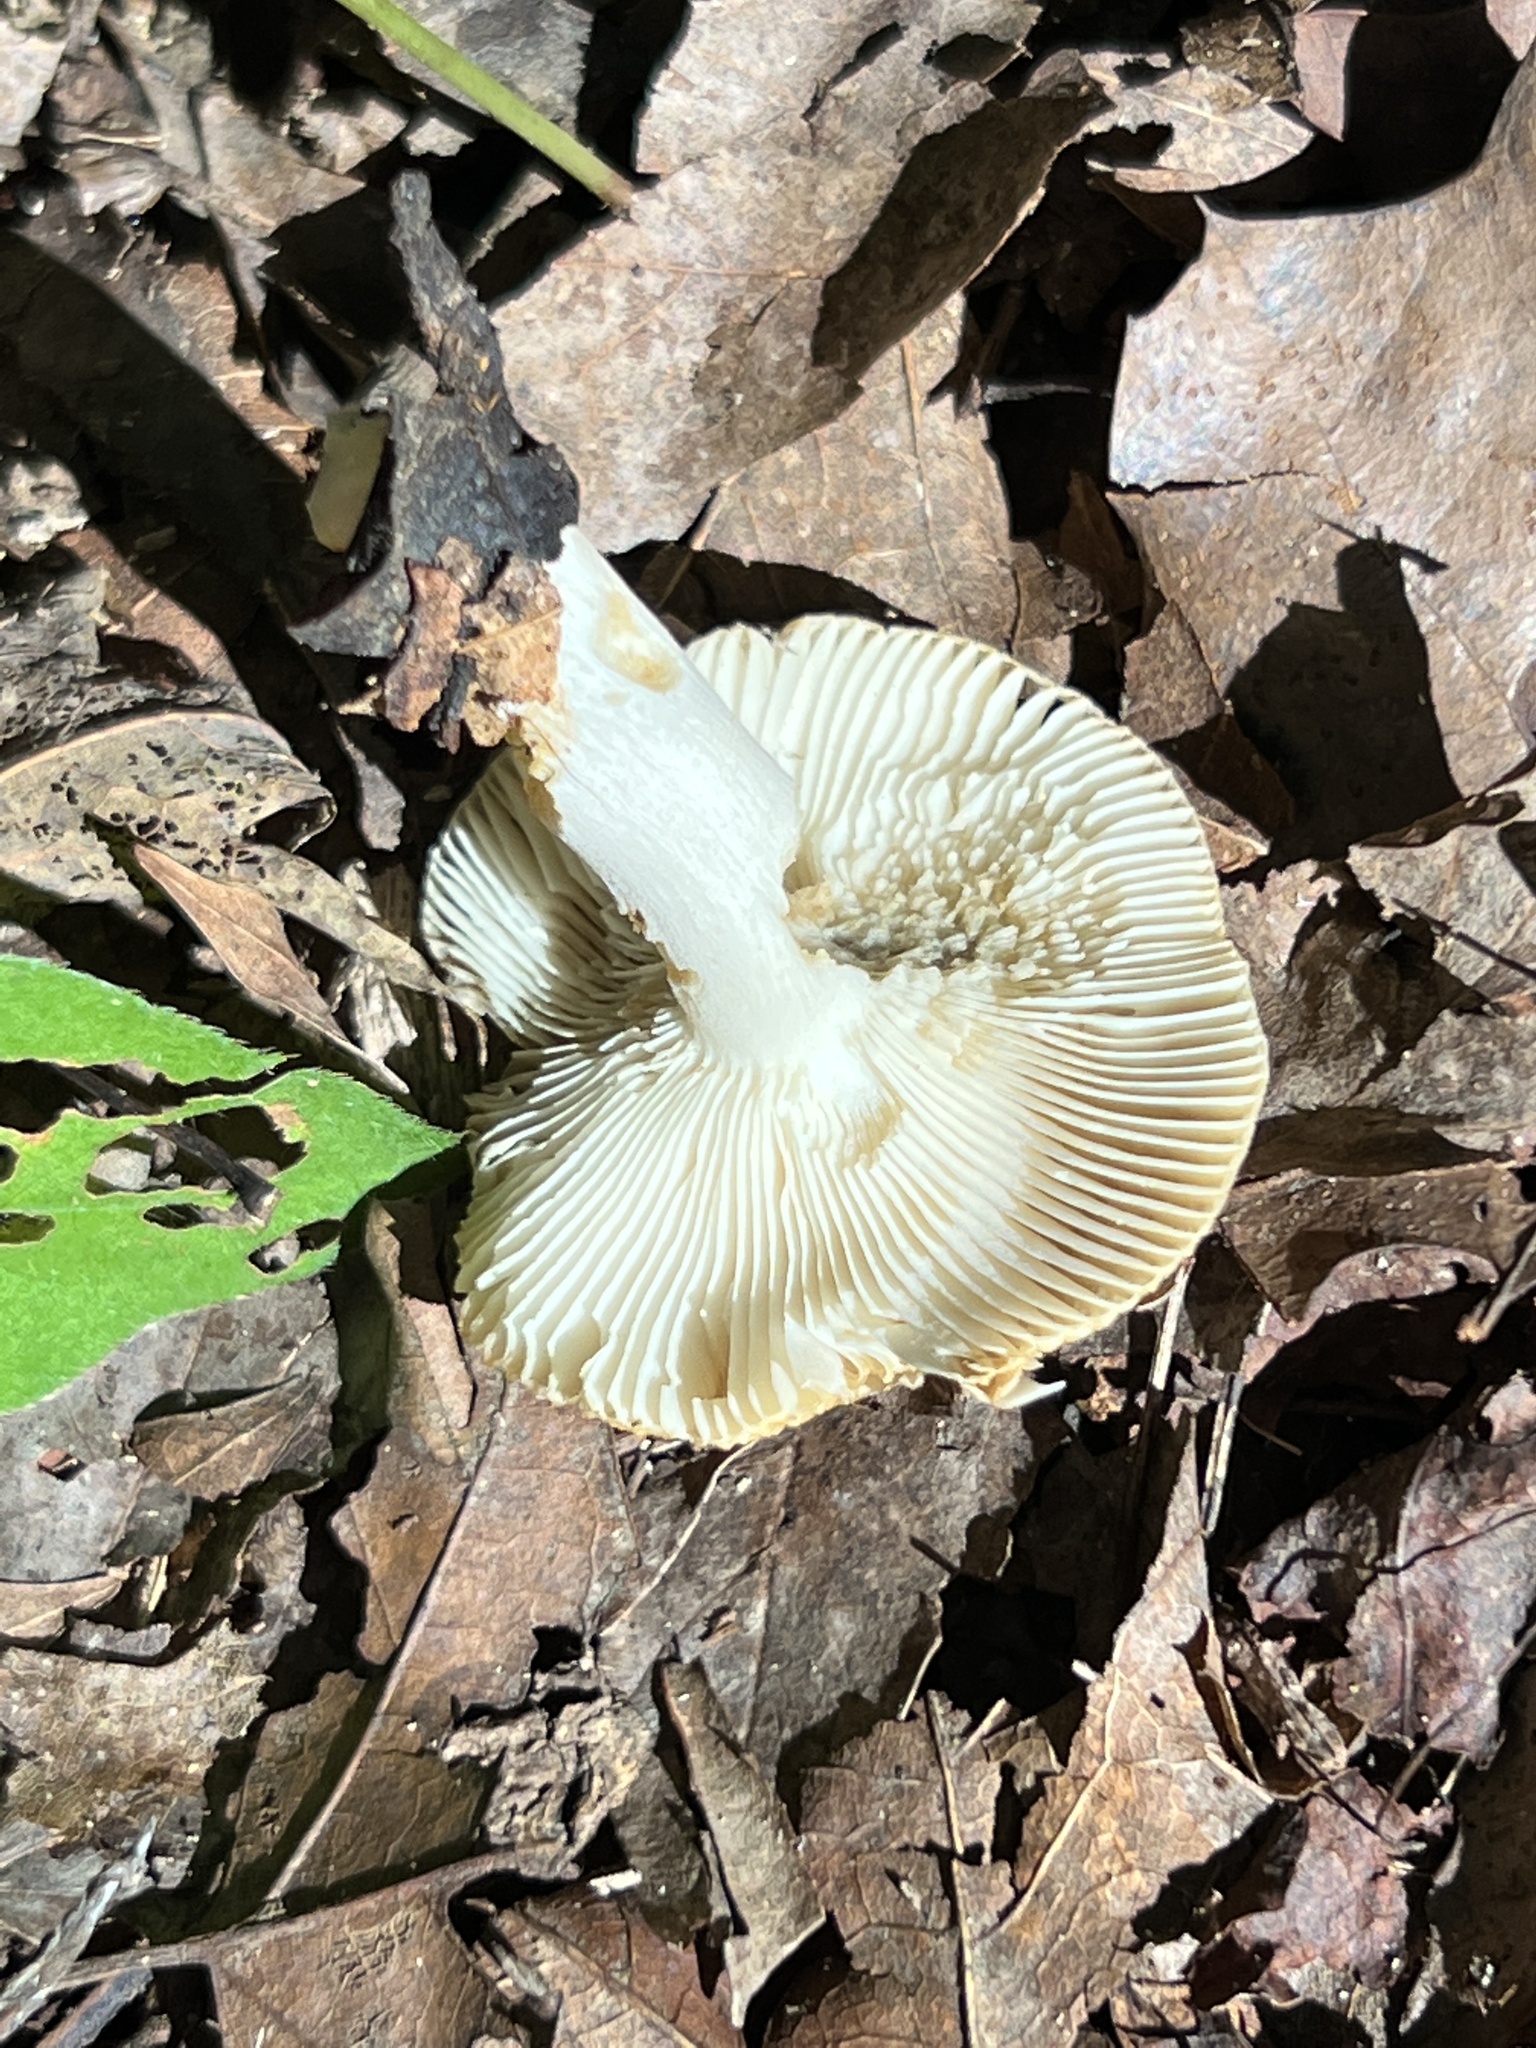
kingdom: Fungi
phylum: Basidiomycota
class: Agaricomycetes
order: Russulales
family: Russulaceae
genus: Russula
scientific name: Russula pectinatoides
